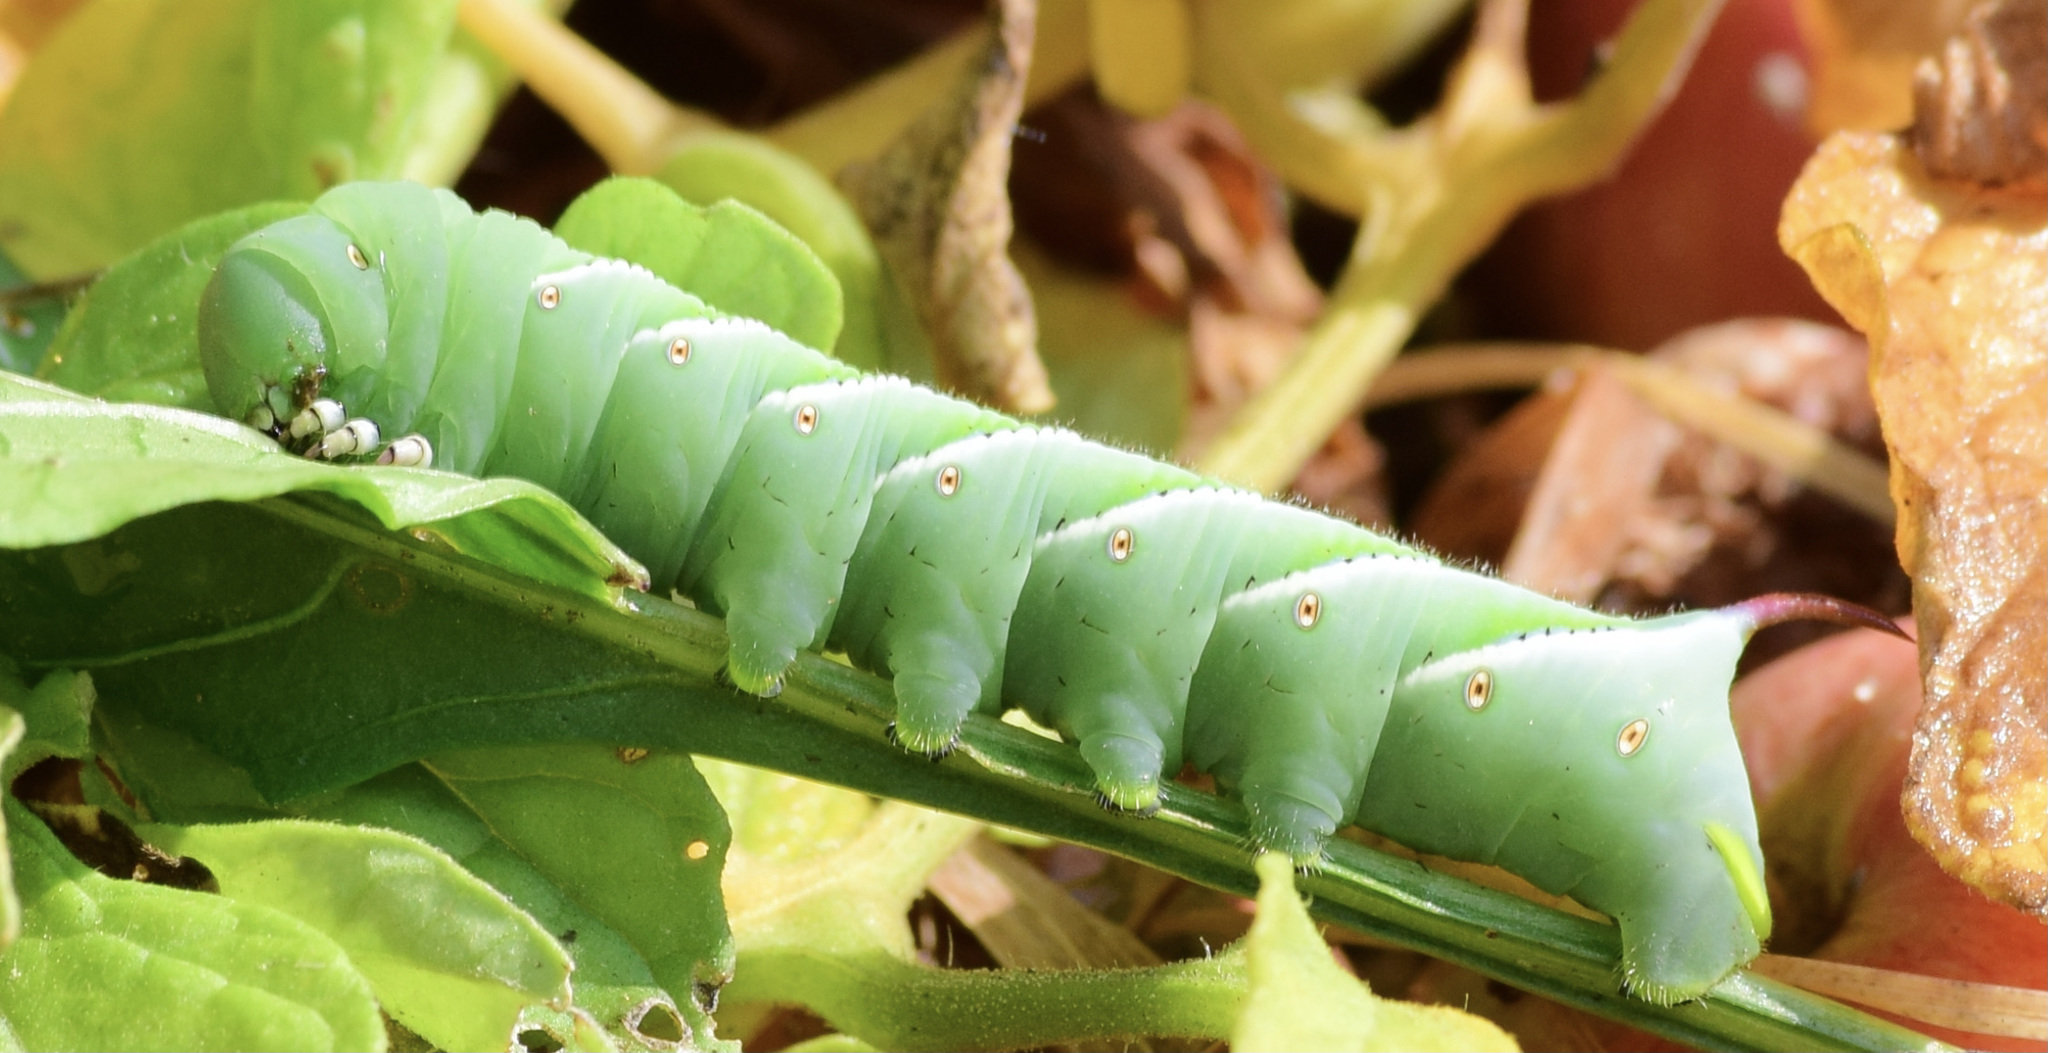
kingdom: Animalia
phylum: Arthropoda
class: Insecta
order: Lepidoptera
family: Sphingidae
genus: Manduca
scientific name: Manduca sexta
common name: Carolina sphinx
